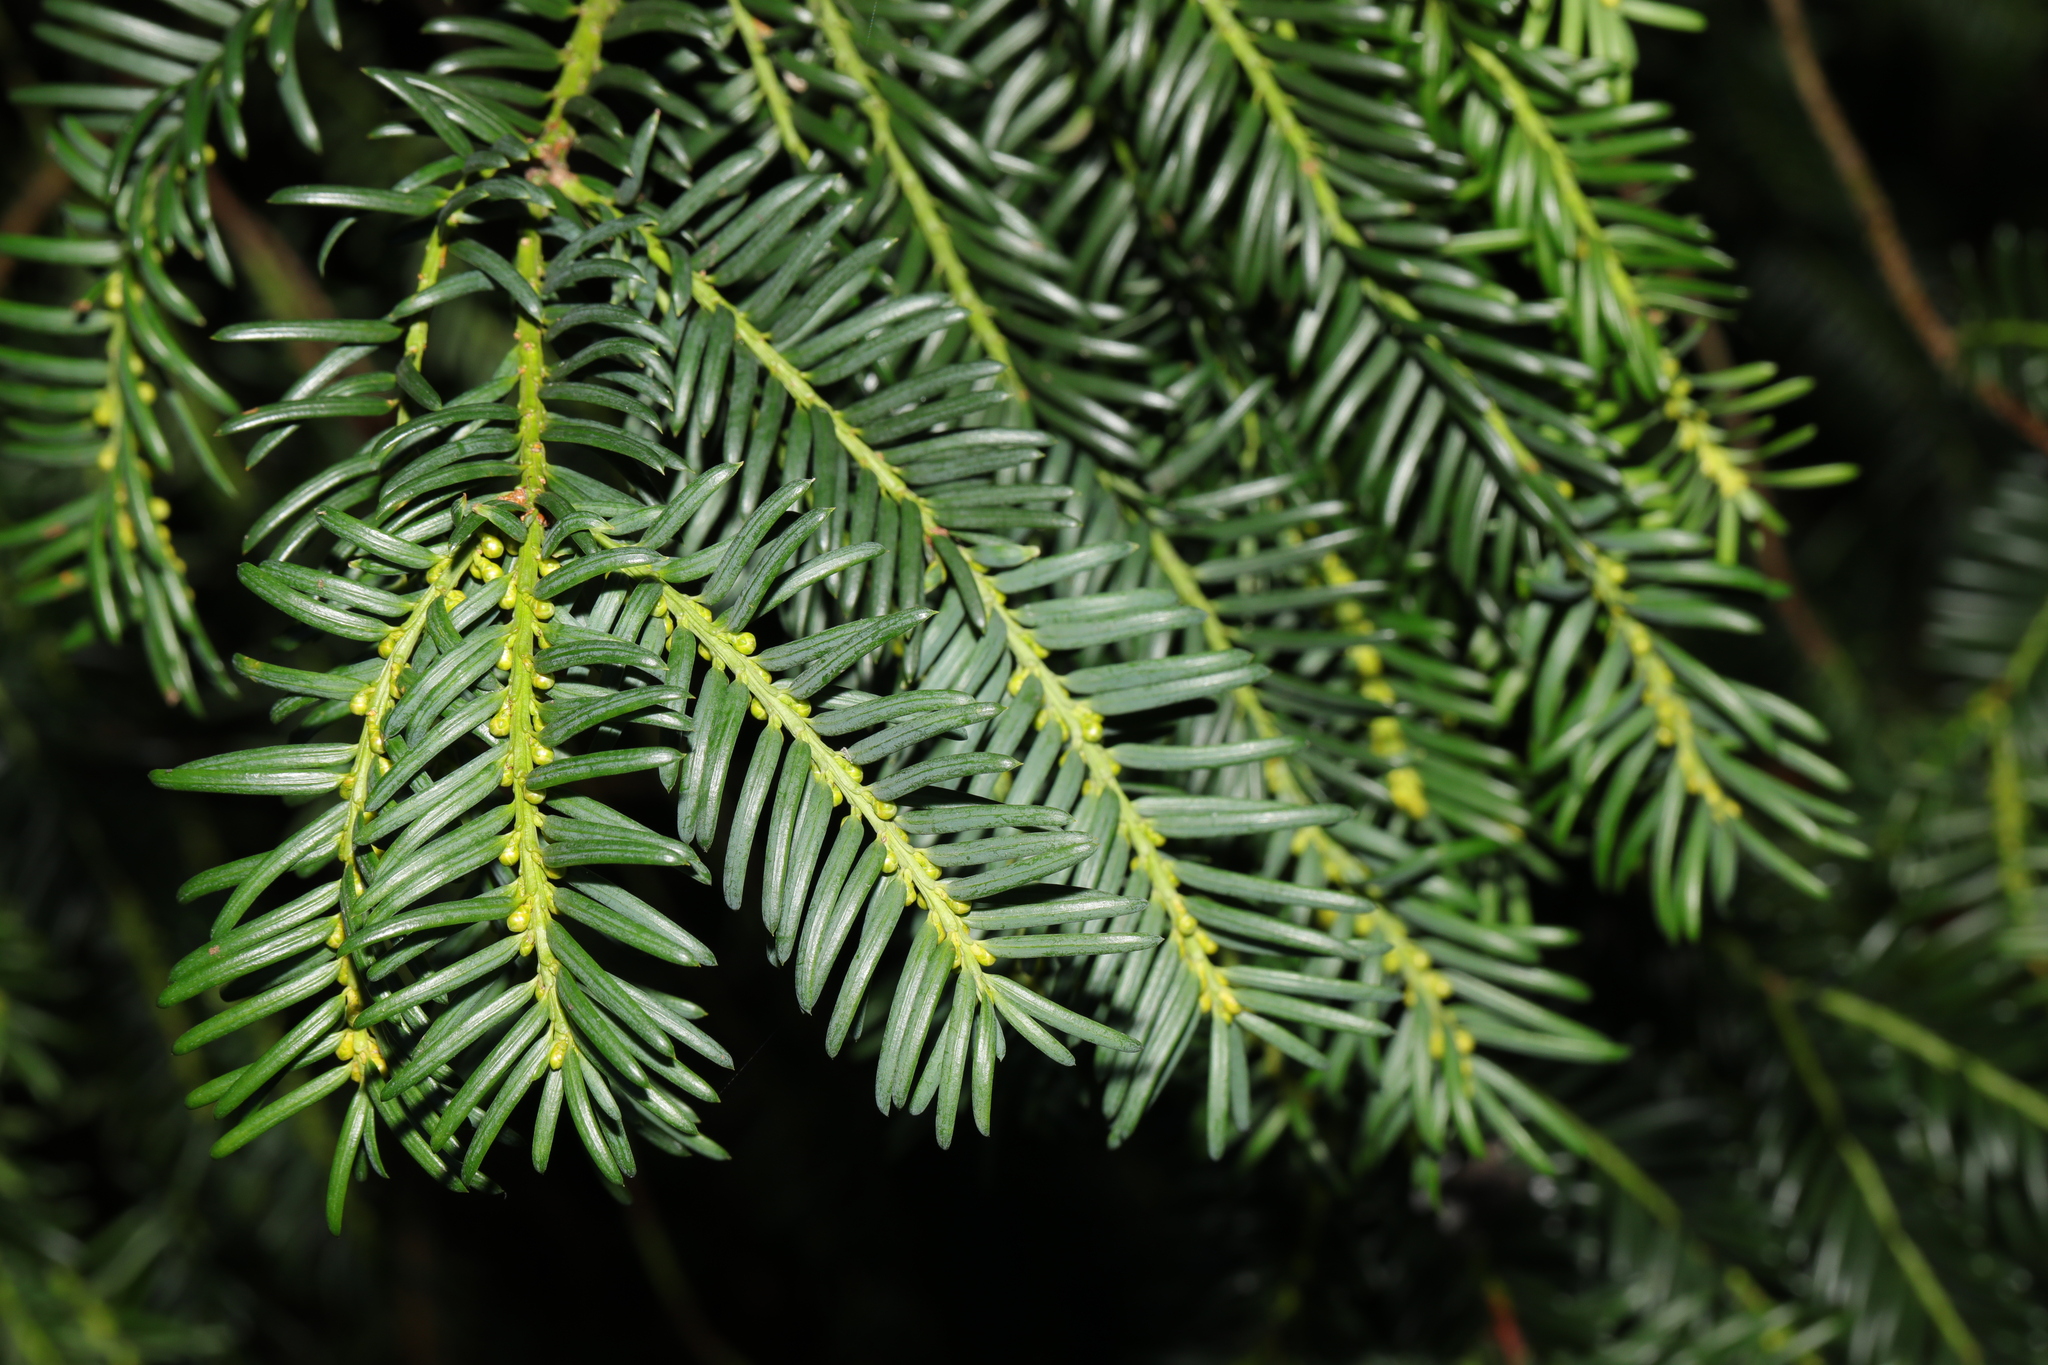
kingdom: Plantae
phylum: Tracheophyta
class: Pinopsida
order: Pinales
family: Taxaceae
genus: Taxus
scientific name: Taxus baccata
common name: Yew
